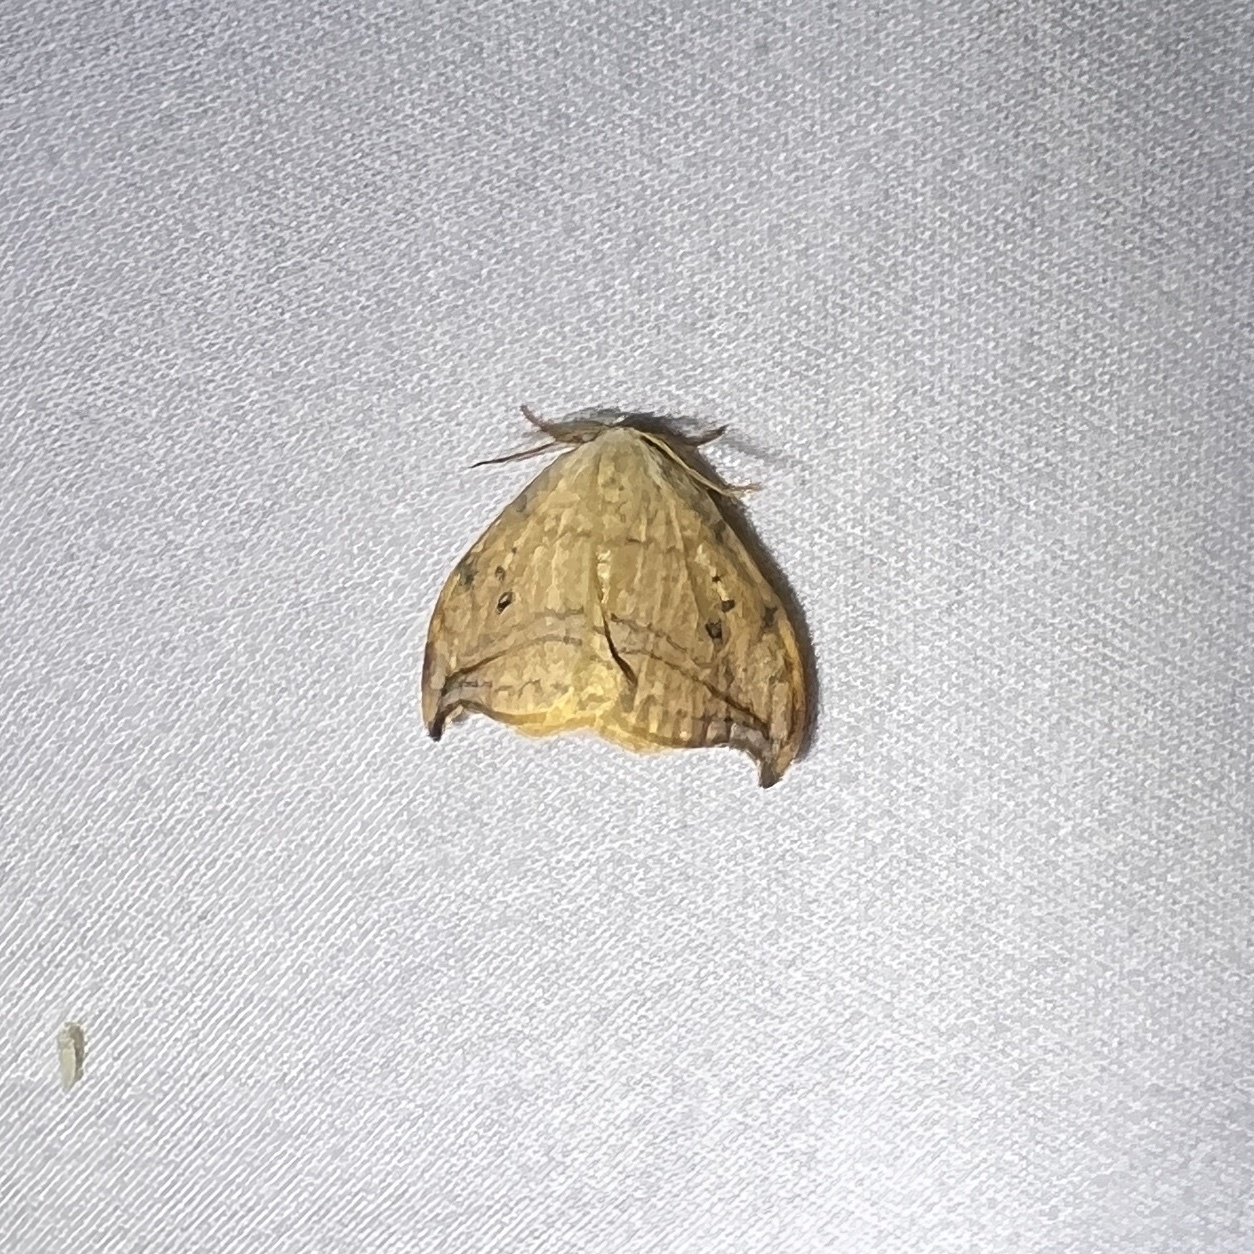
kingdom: Animalia
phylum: Arthropoda
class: Insecta
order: Lepidoptera
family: Drepanidae
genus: Drepana
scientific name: Drepana arcuata
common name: Arched hooktip moth
